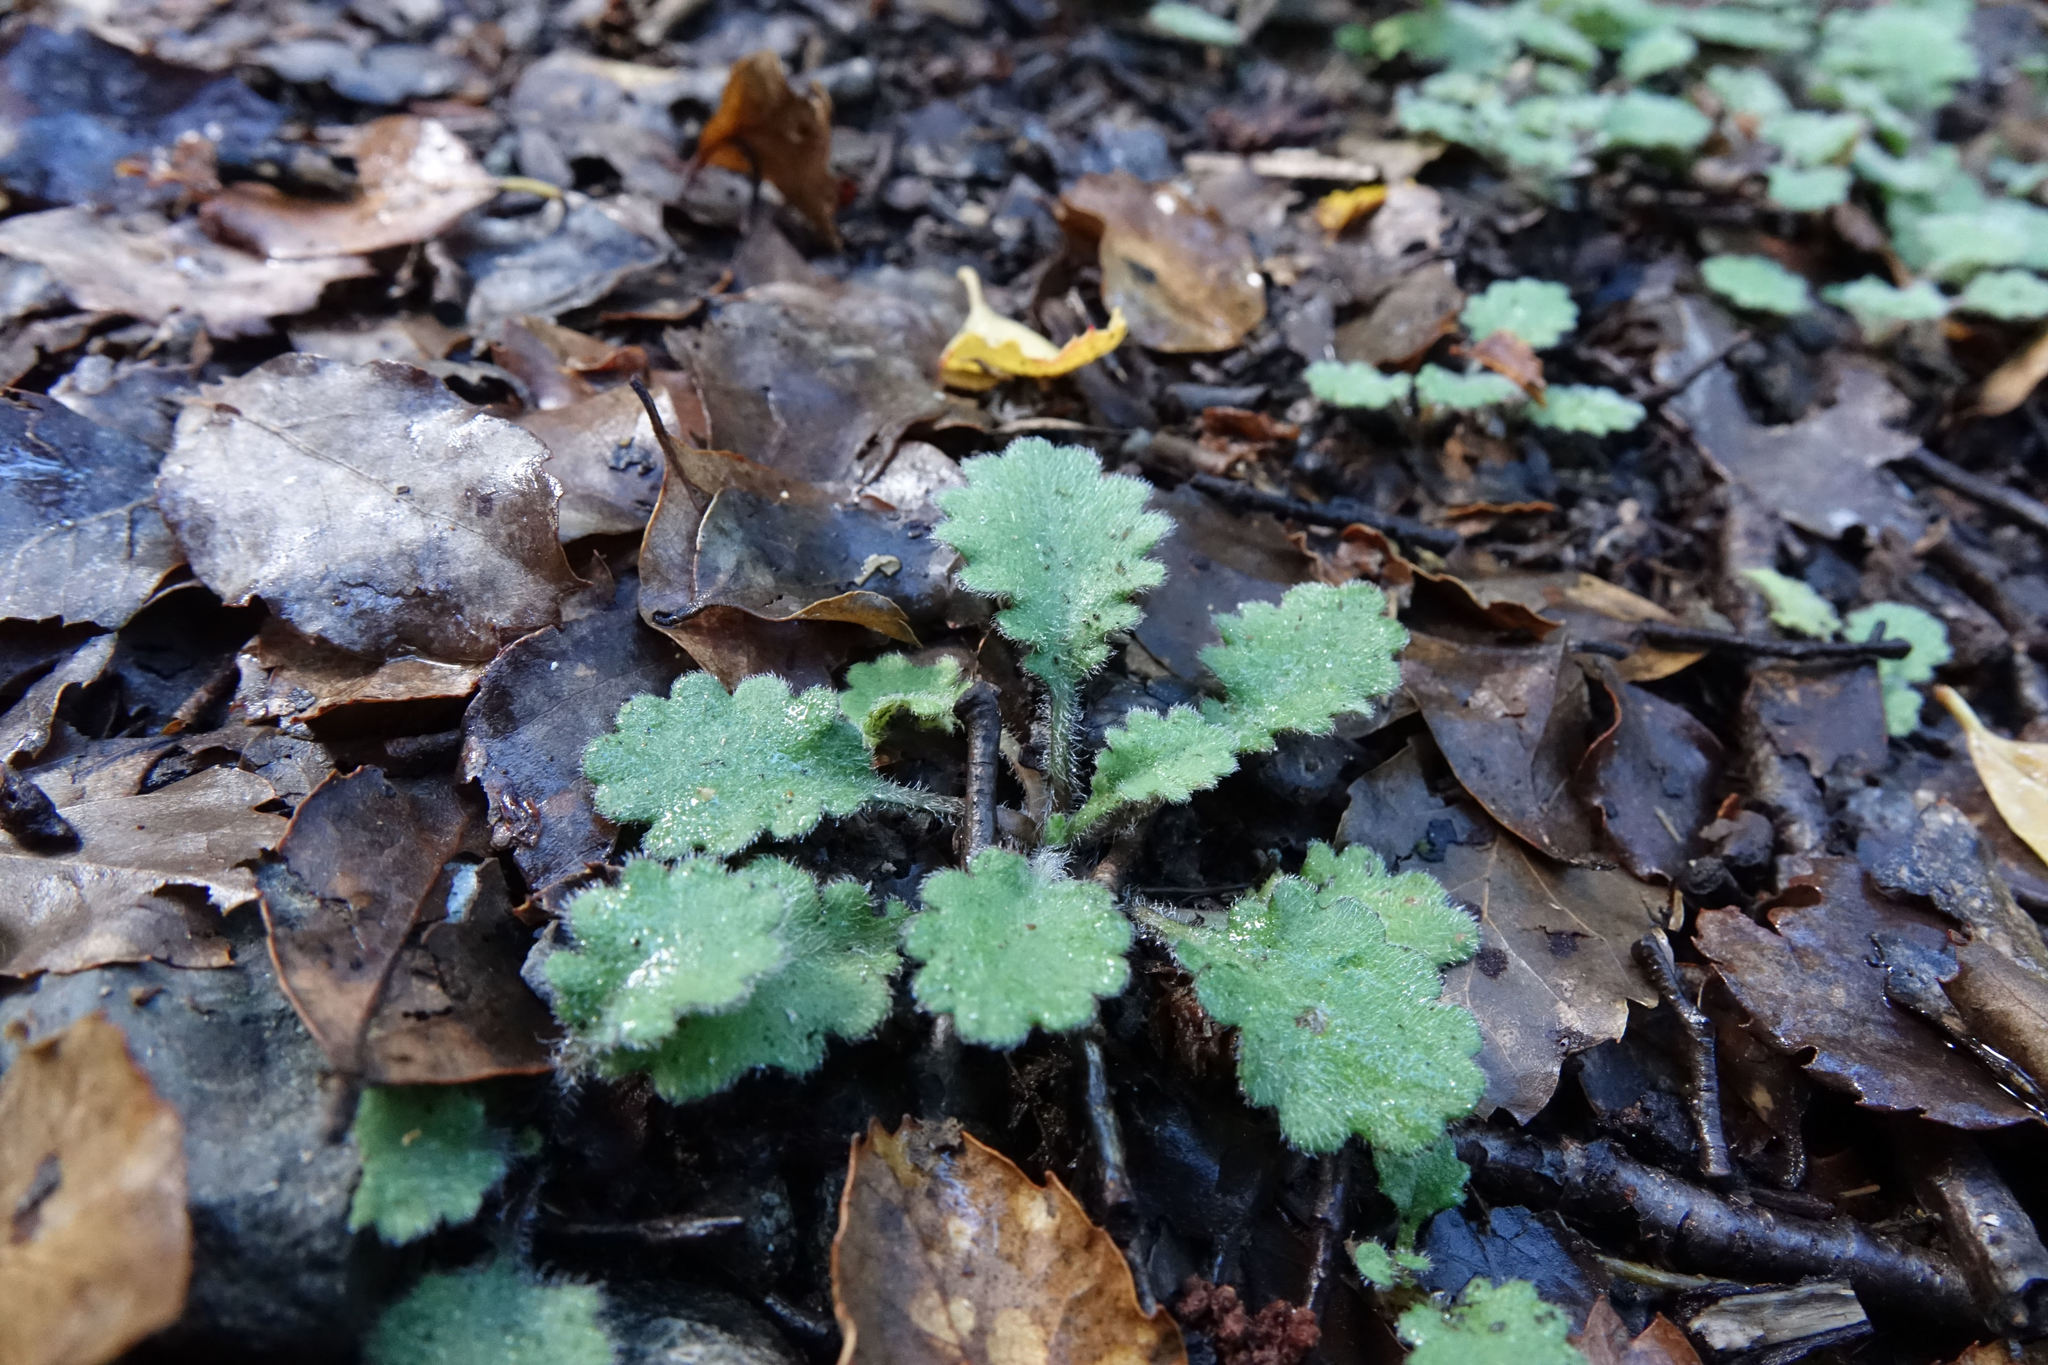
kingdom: Plantae
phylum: Tracheophyta
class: Magnoliopsida
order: Asterales
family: Asteraceae
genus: Lagenophora
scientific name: Lagenophora pinnatifida
